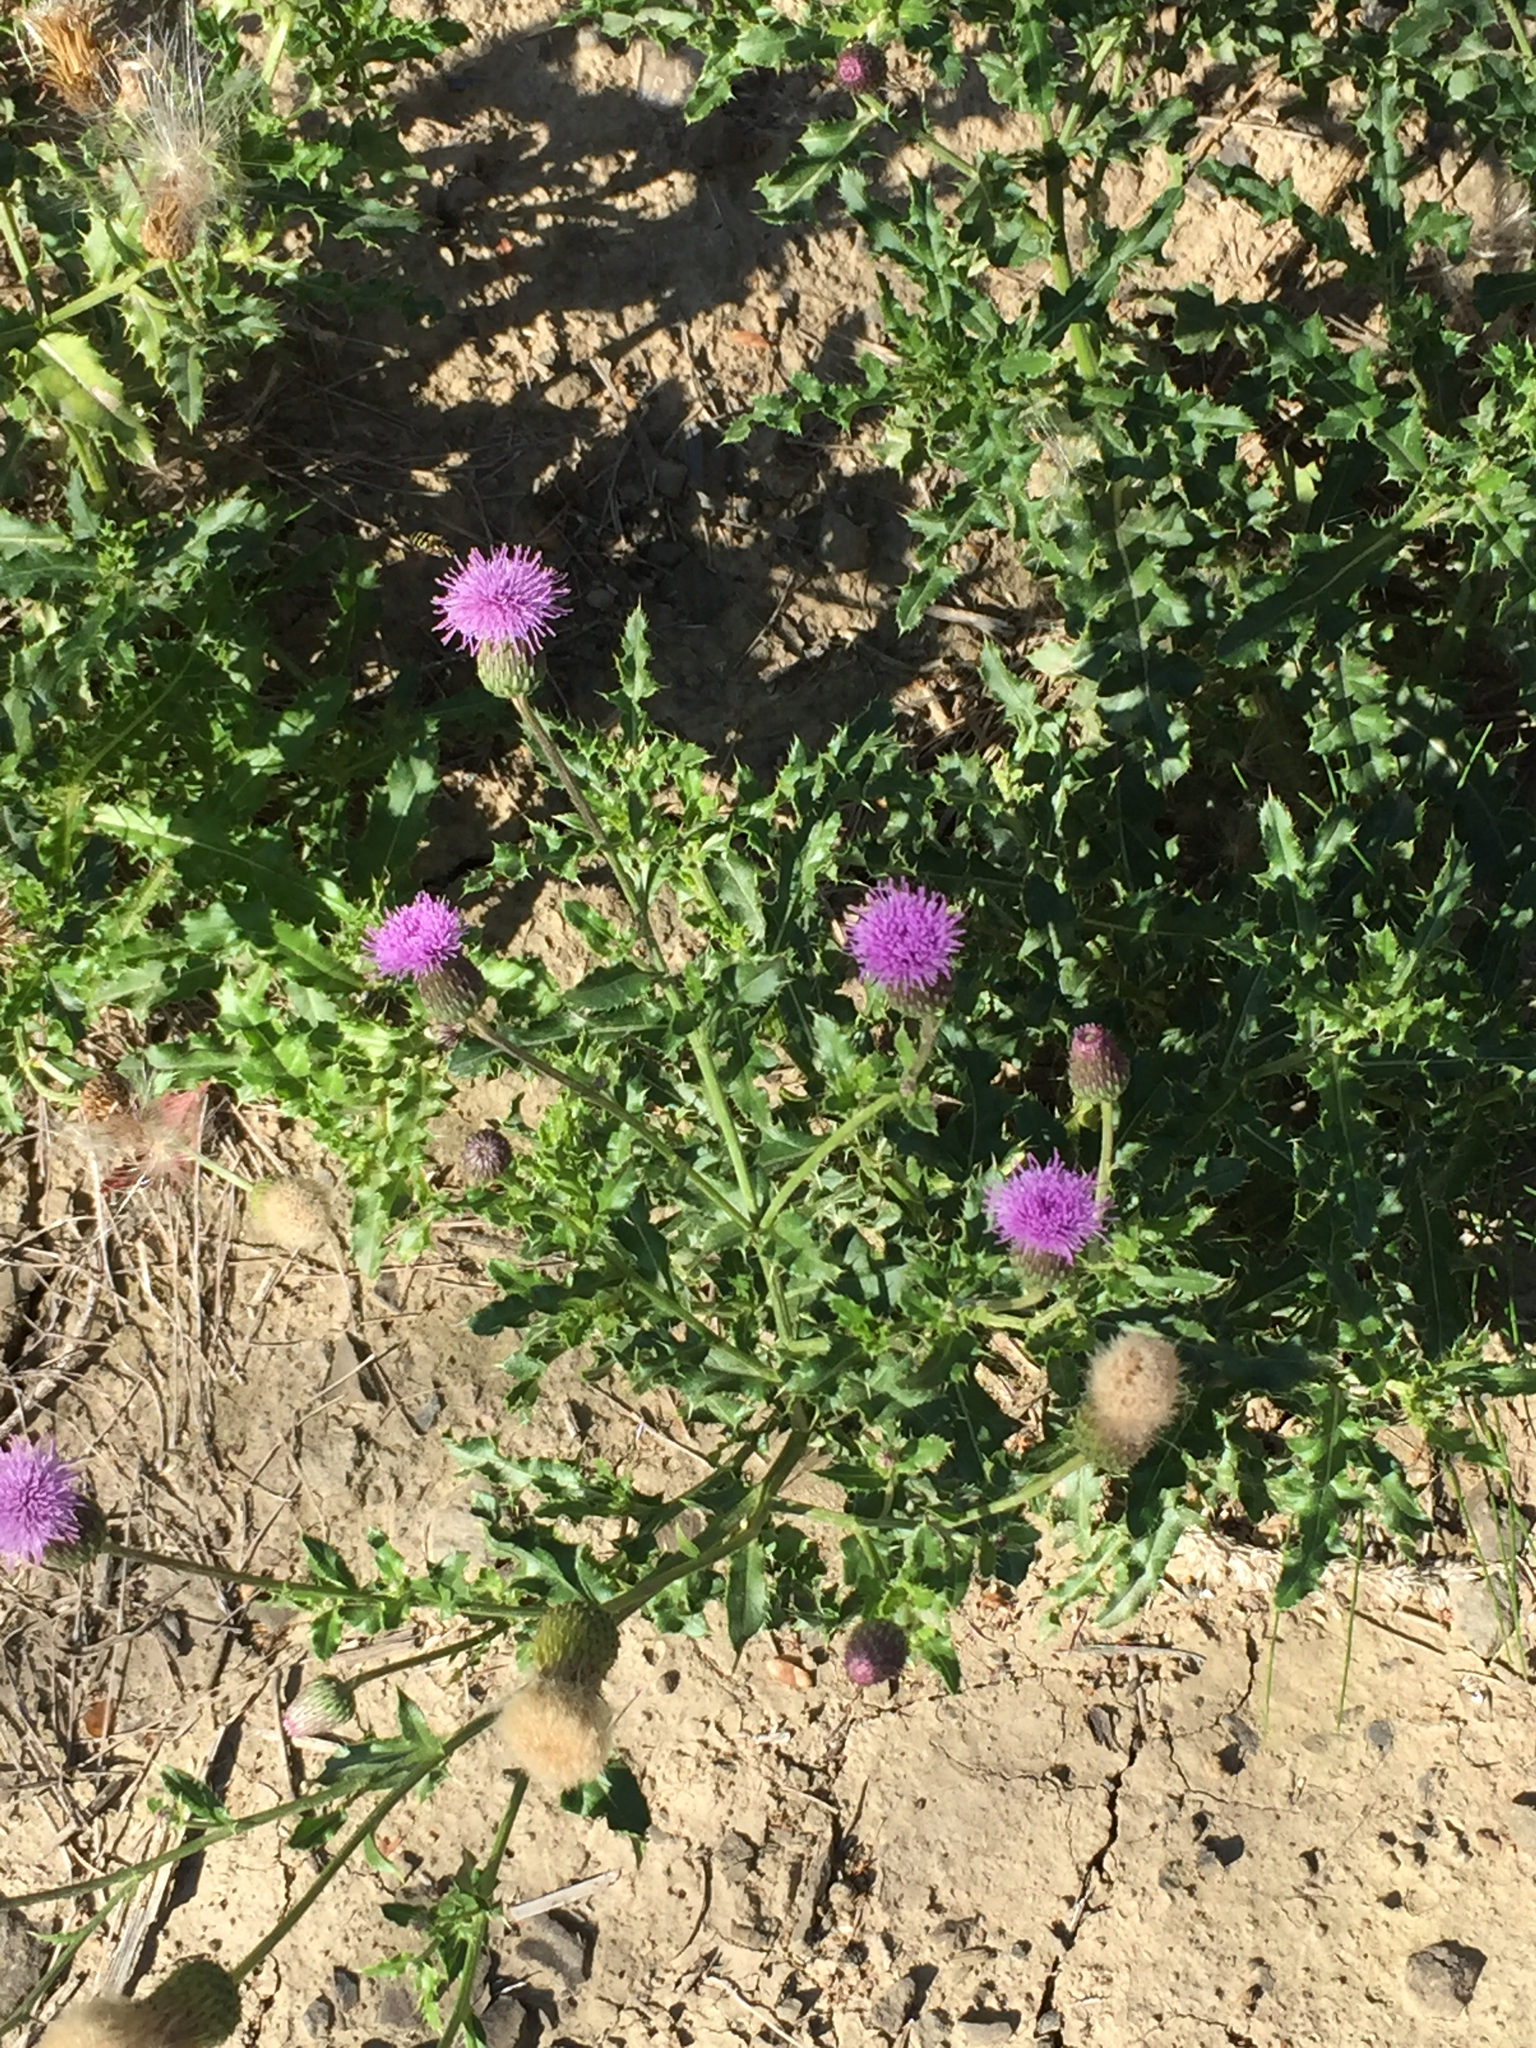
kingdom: Plantae
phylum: Tracheophyta
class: Magnoliopsida
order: Asterales
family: Asteraceae
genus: Cirsium
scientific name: Cirsium arvense
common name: Creeping thistle
